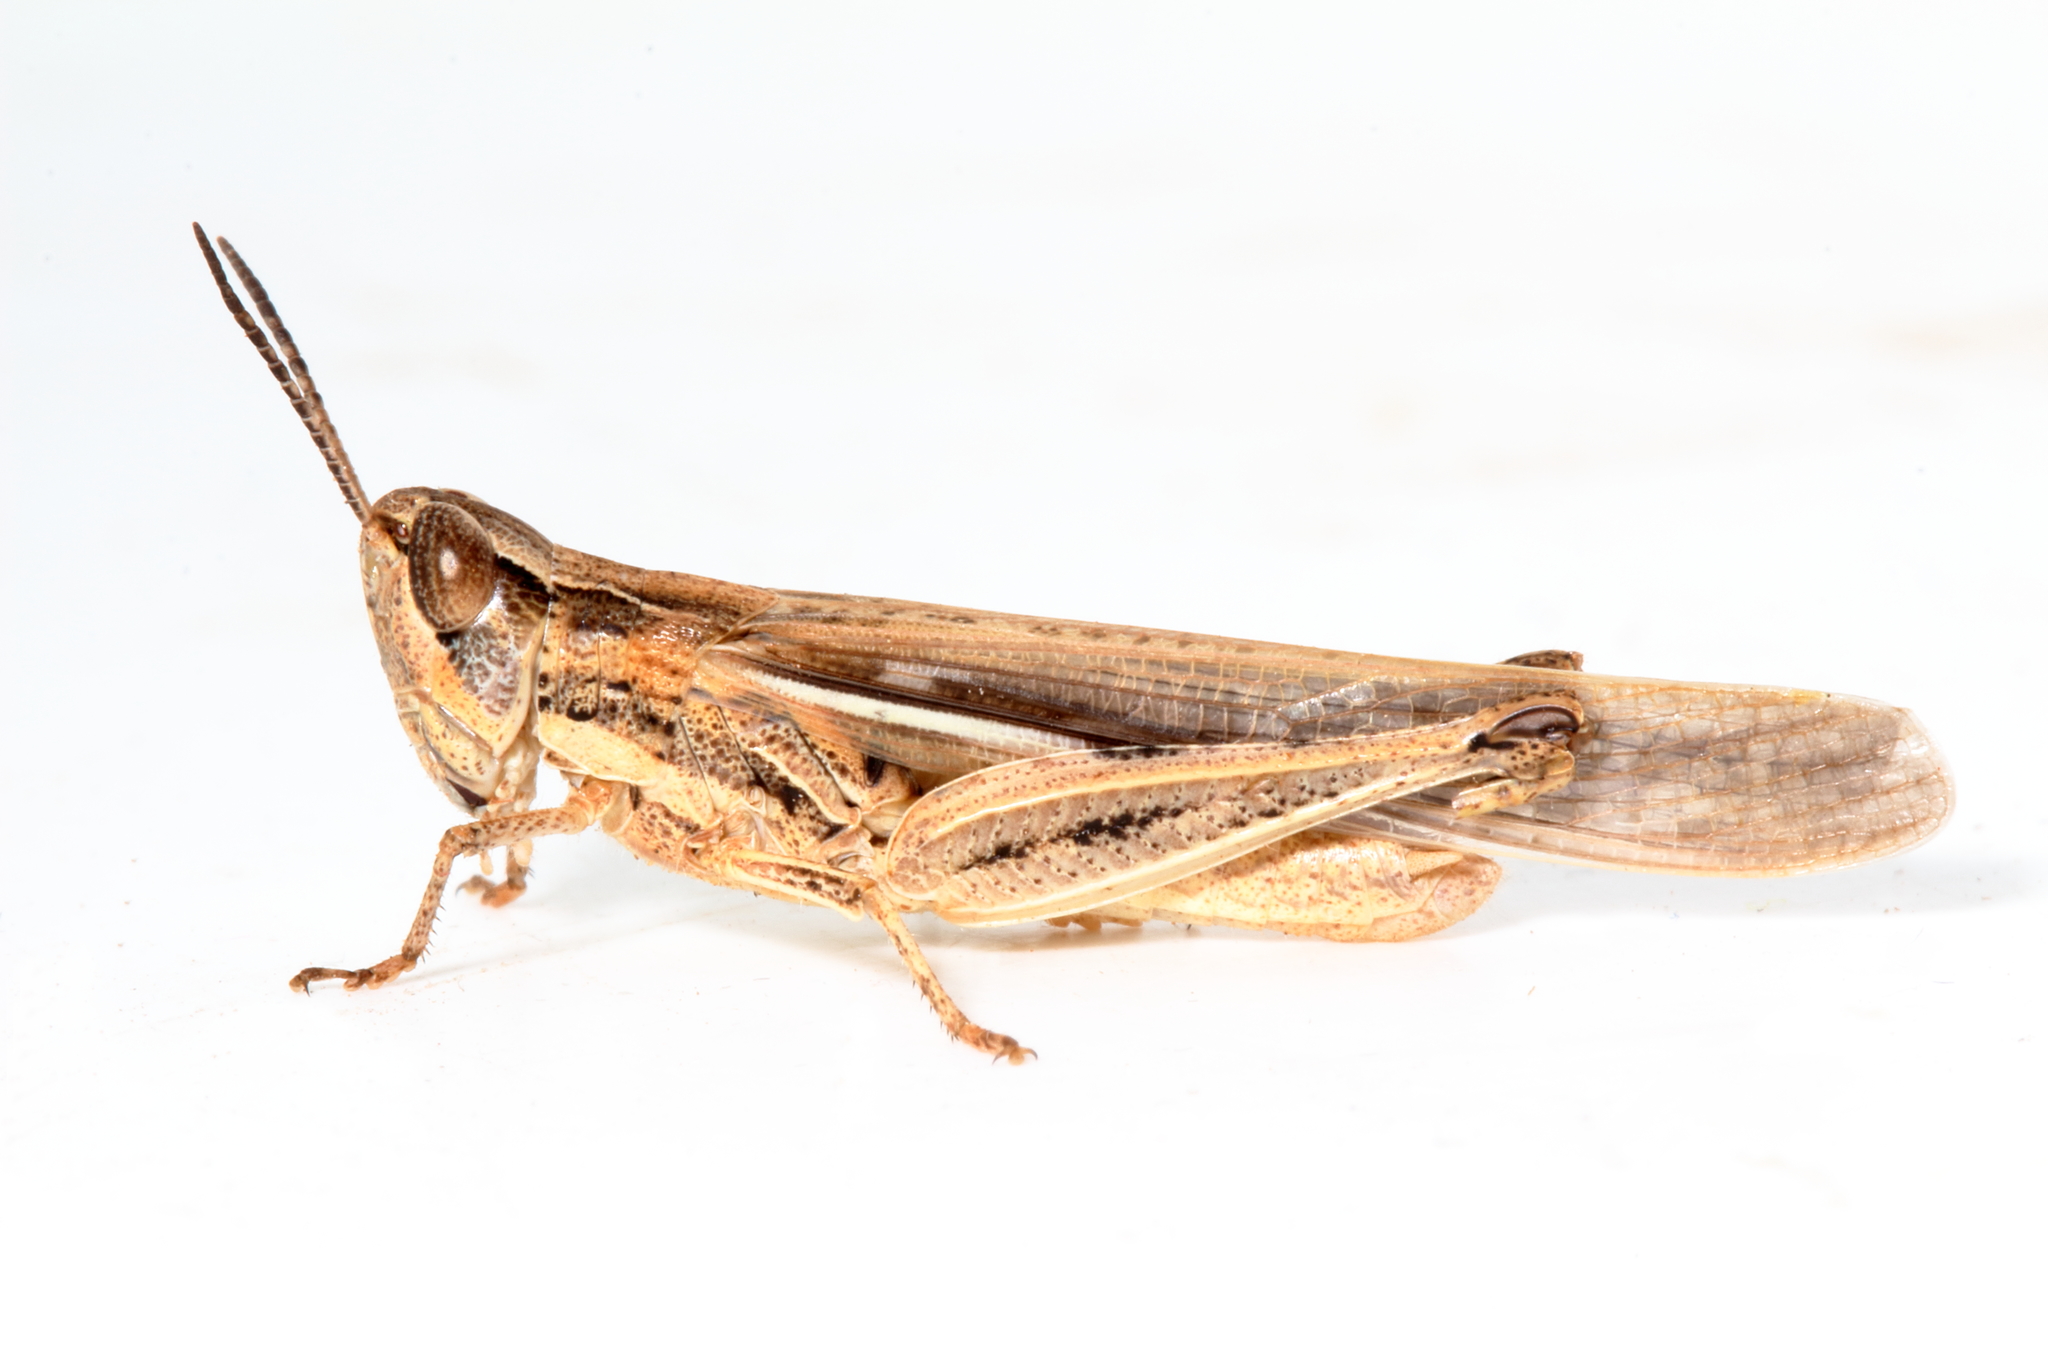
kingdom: Animalia
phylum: Arthropoda
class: Insecta
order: Orthoptera
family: Acrididae
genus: Aiolopus
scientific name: Aiolopus thalassinus
